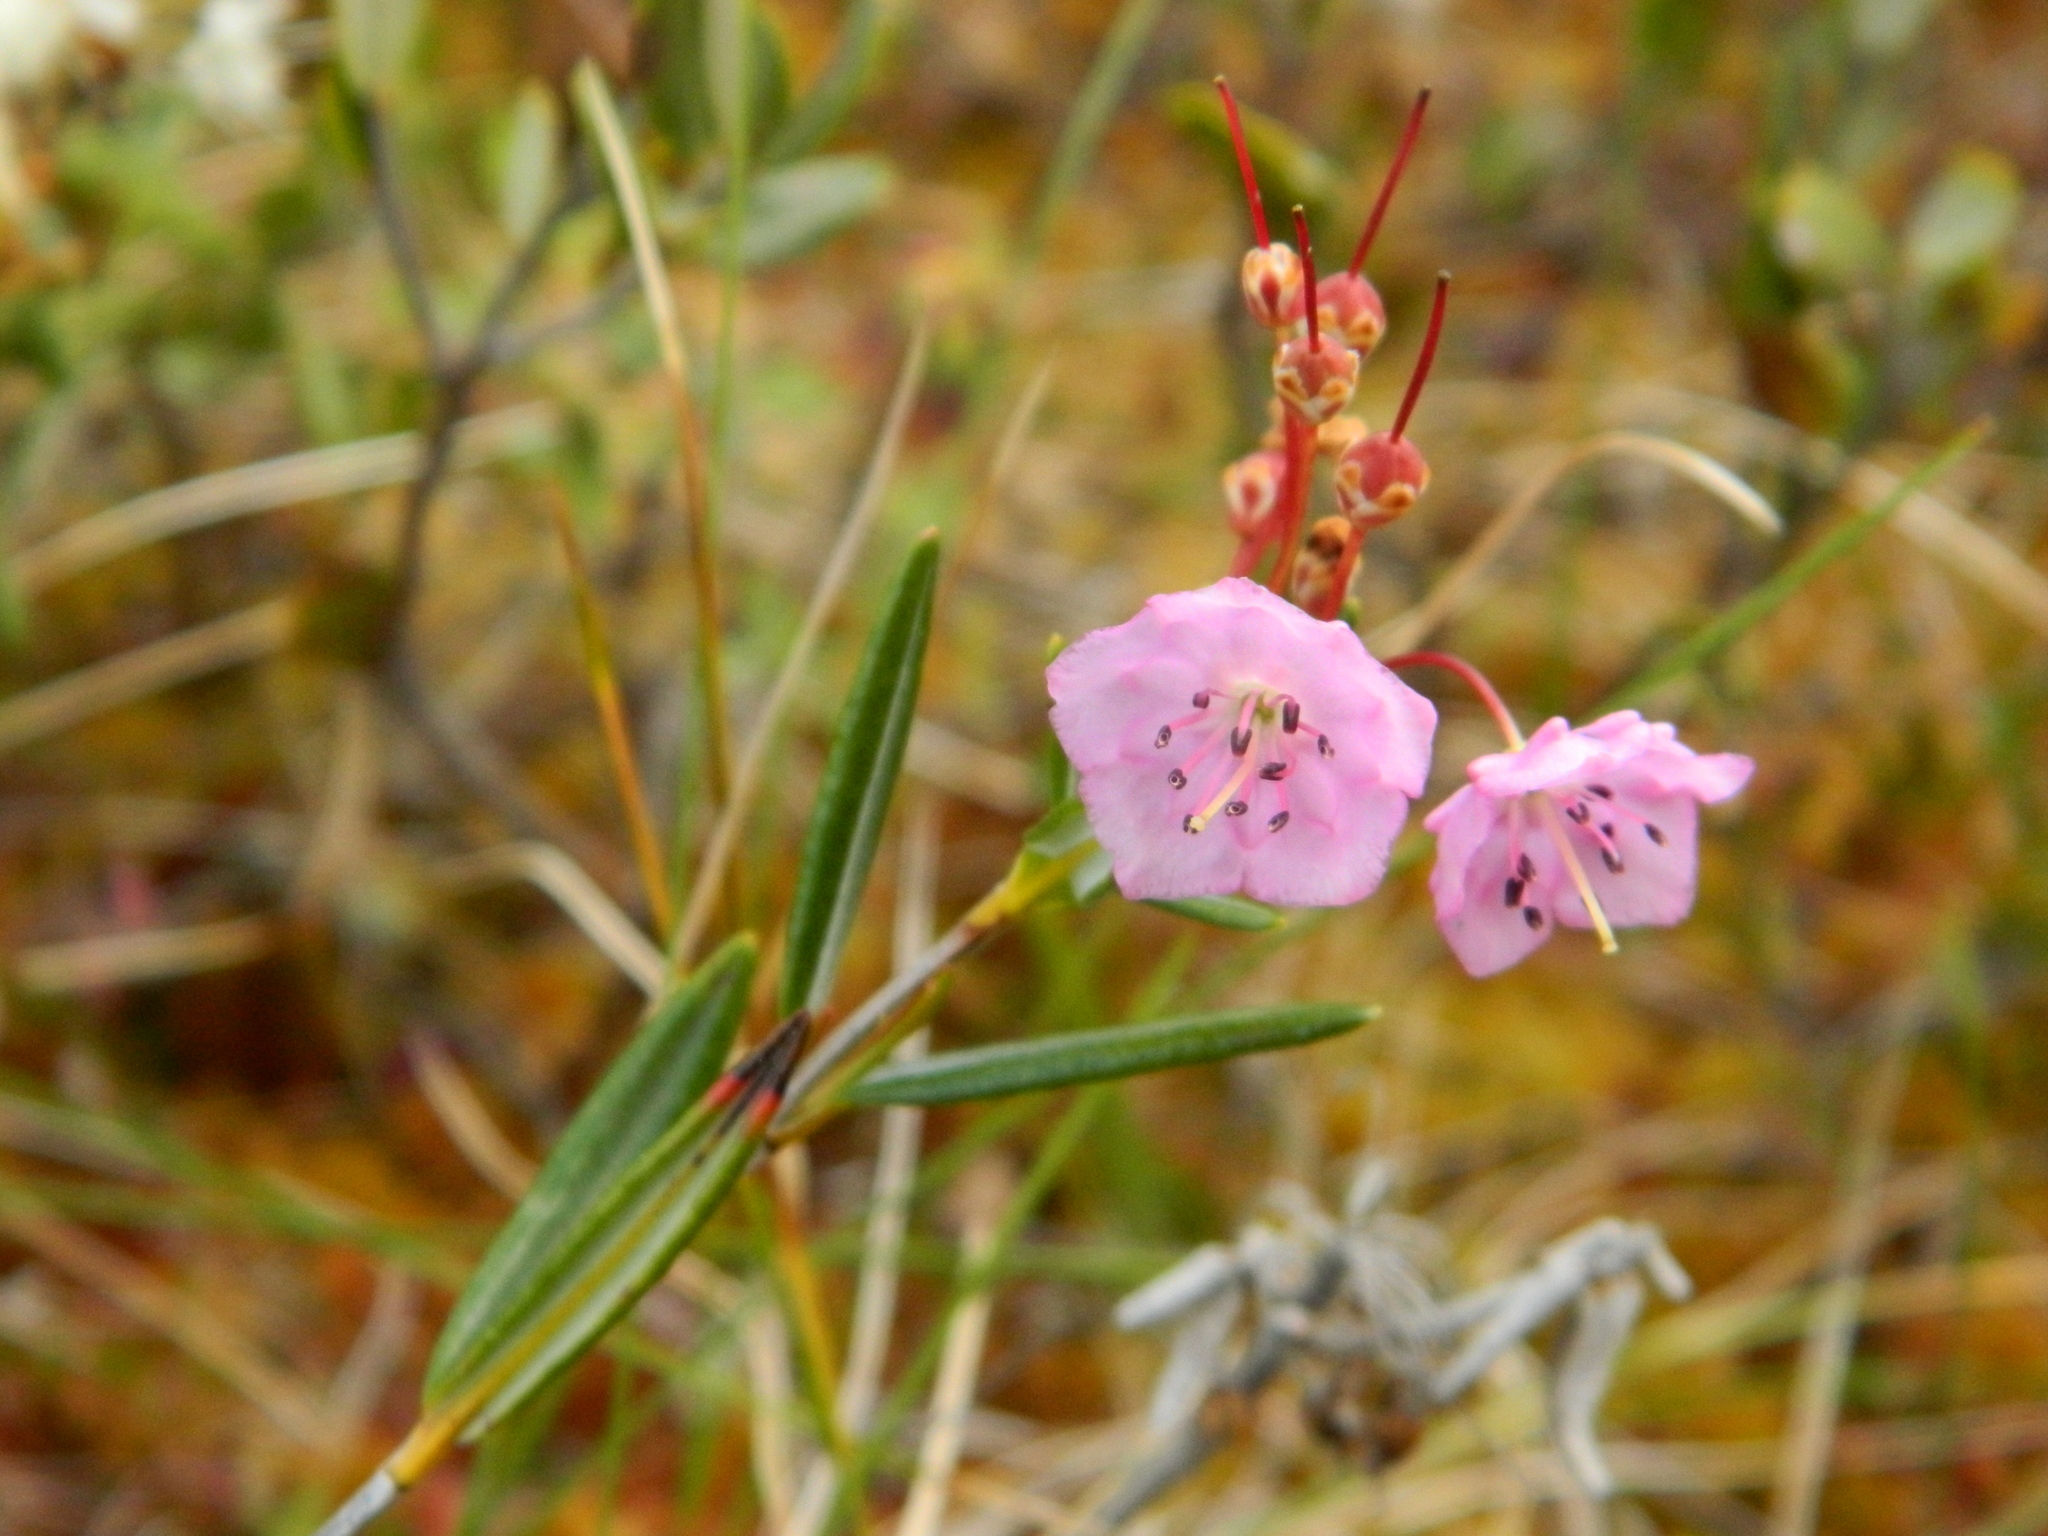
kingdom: Plantae
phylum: Tracheophyta
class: Magnoliopsida
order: Ericales
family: Ericaceae
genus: Kalmia
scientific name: Kalmia polifolia
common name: Bog-laurel
